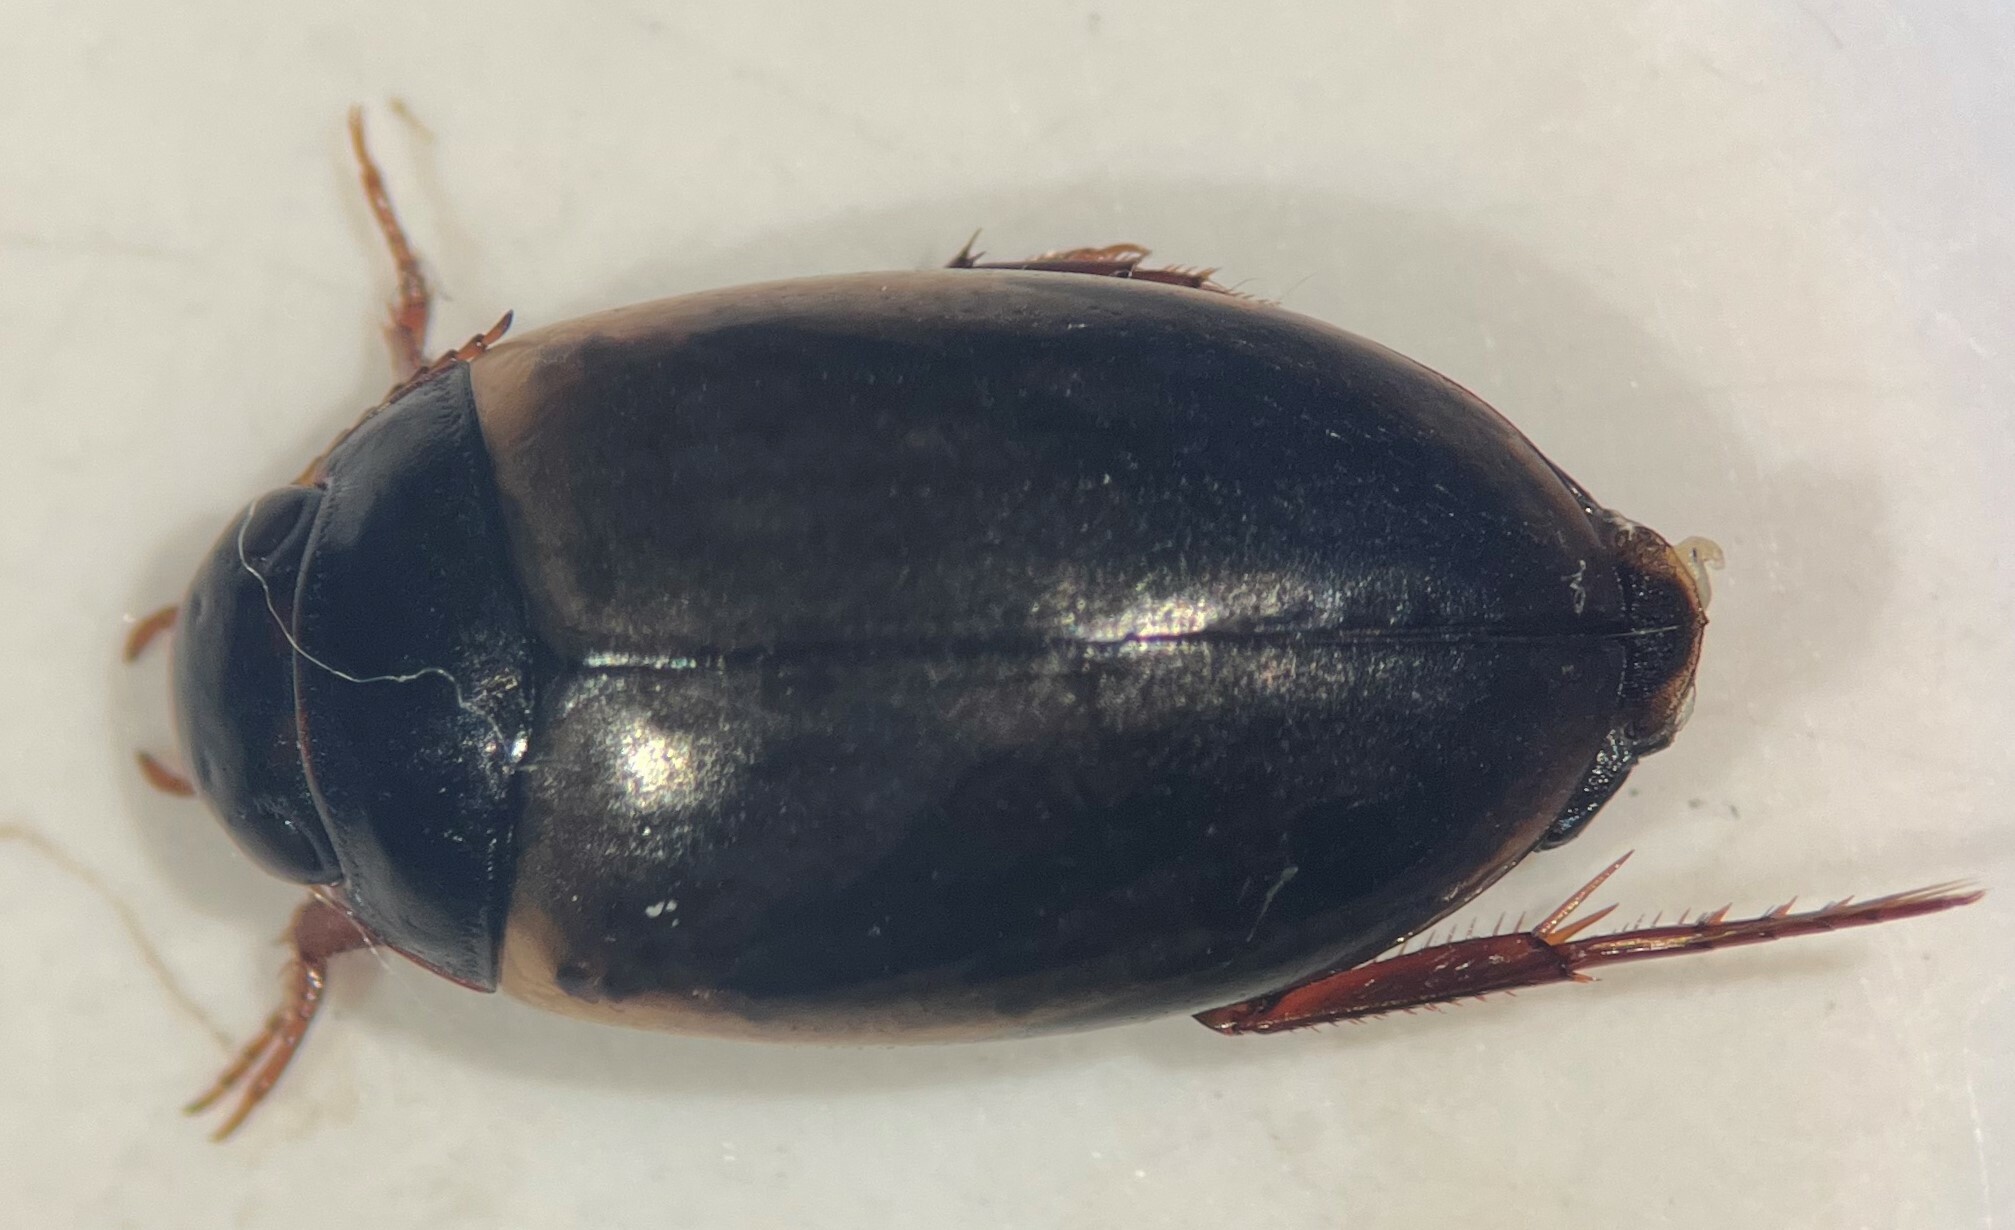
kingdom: Animalia
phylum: Arthropoda
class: Insecta
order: Coleoptera
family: Dytiscidae
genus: Agabus
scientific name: Agabus approximatus
